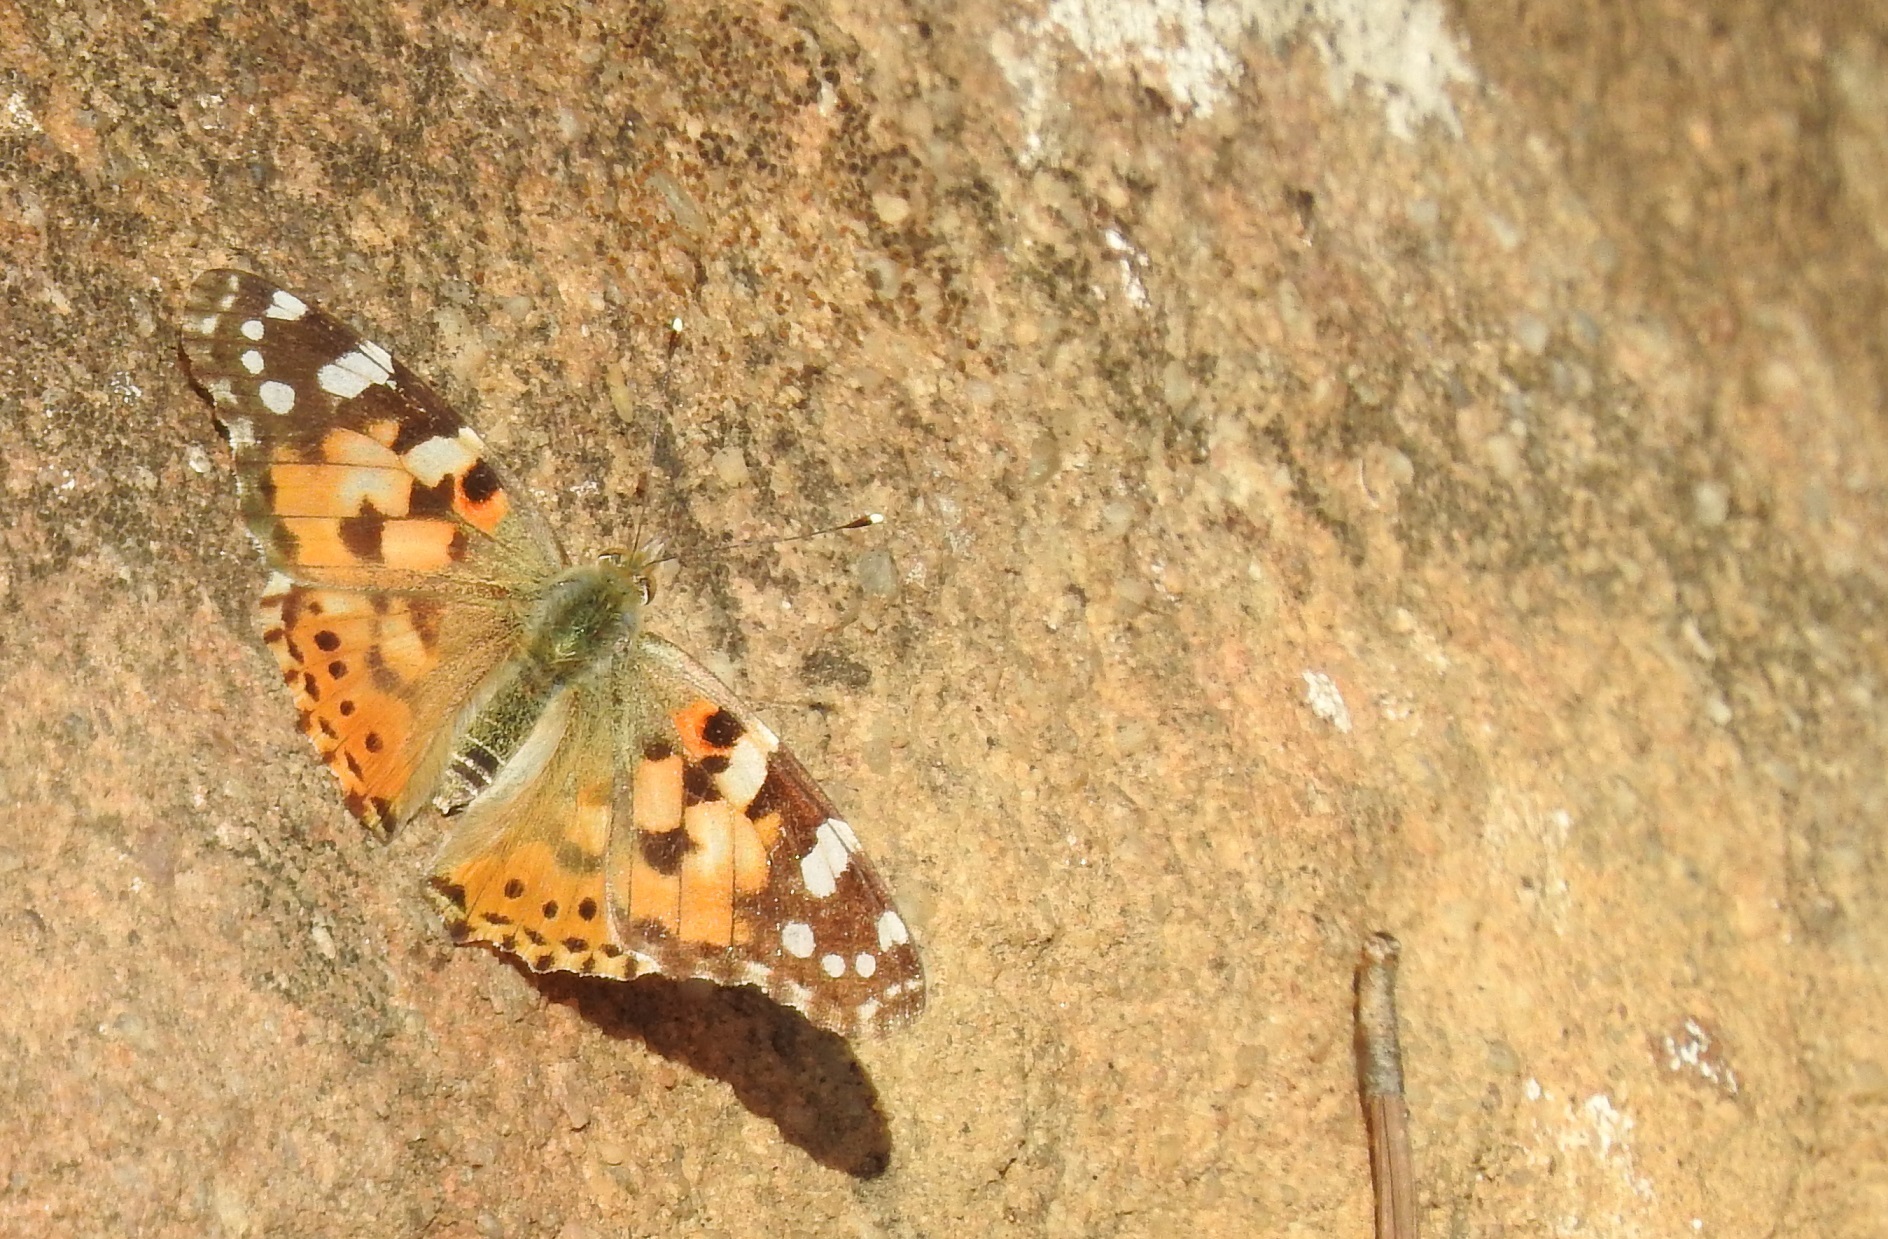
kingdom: Animalia
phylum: Arthropoda
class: Insecta
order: Lepidoptera
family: Nymphalidae
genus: Vanessa
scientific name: Vanessa cardui
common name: Painted lady
